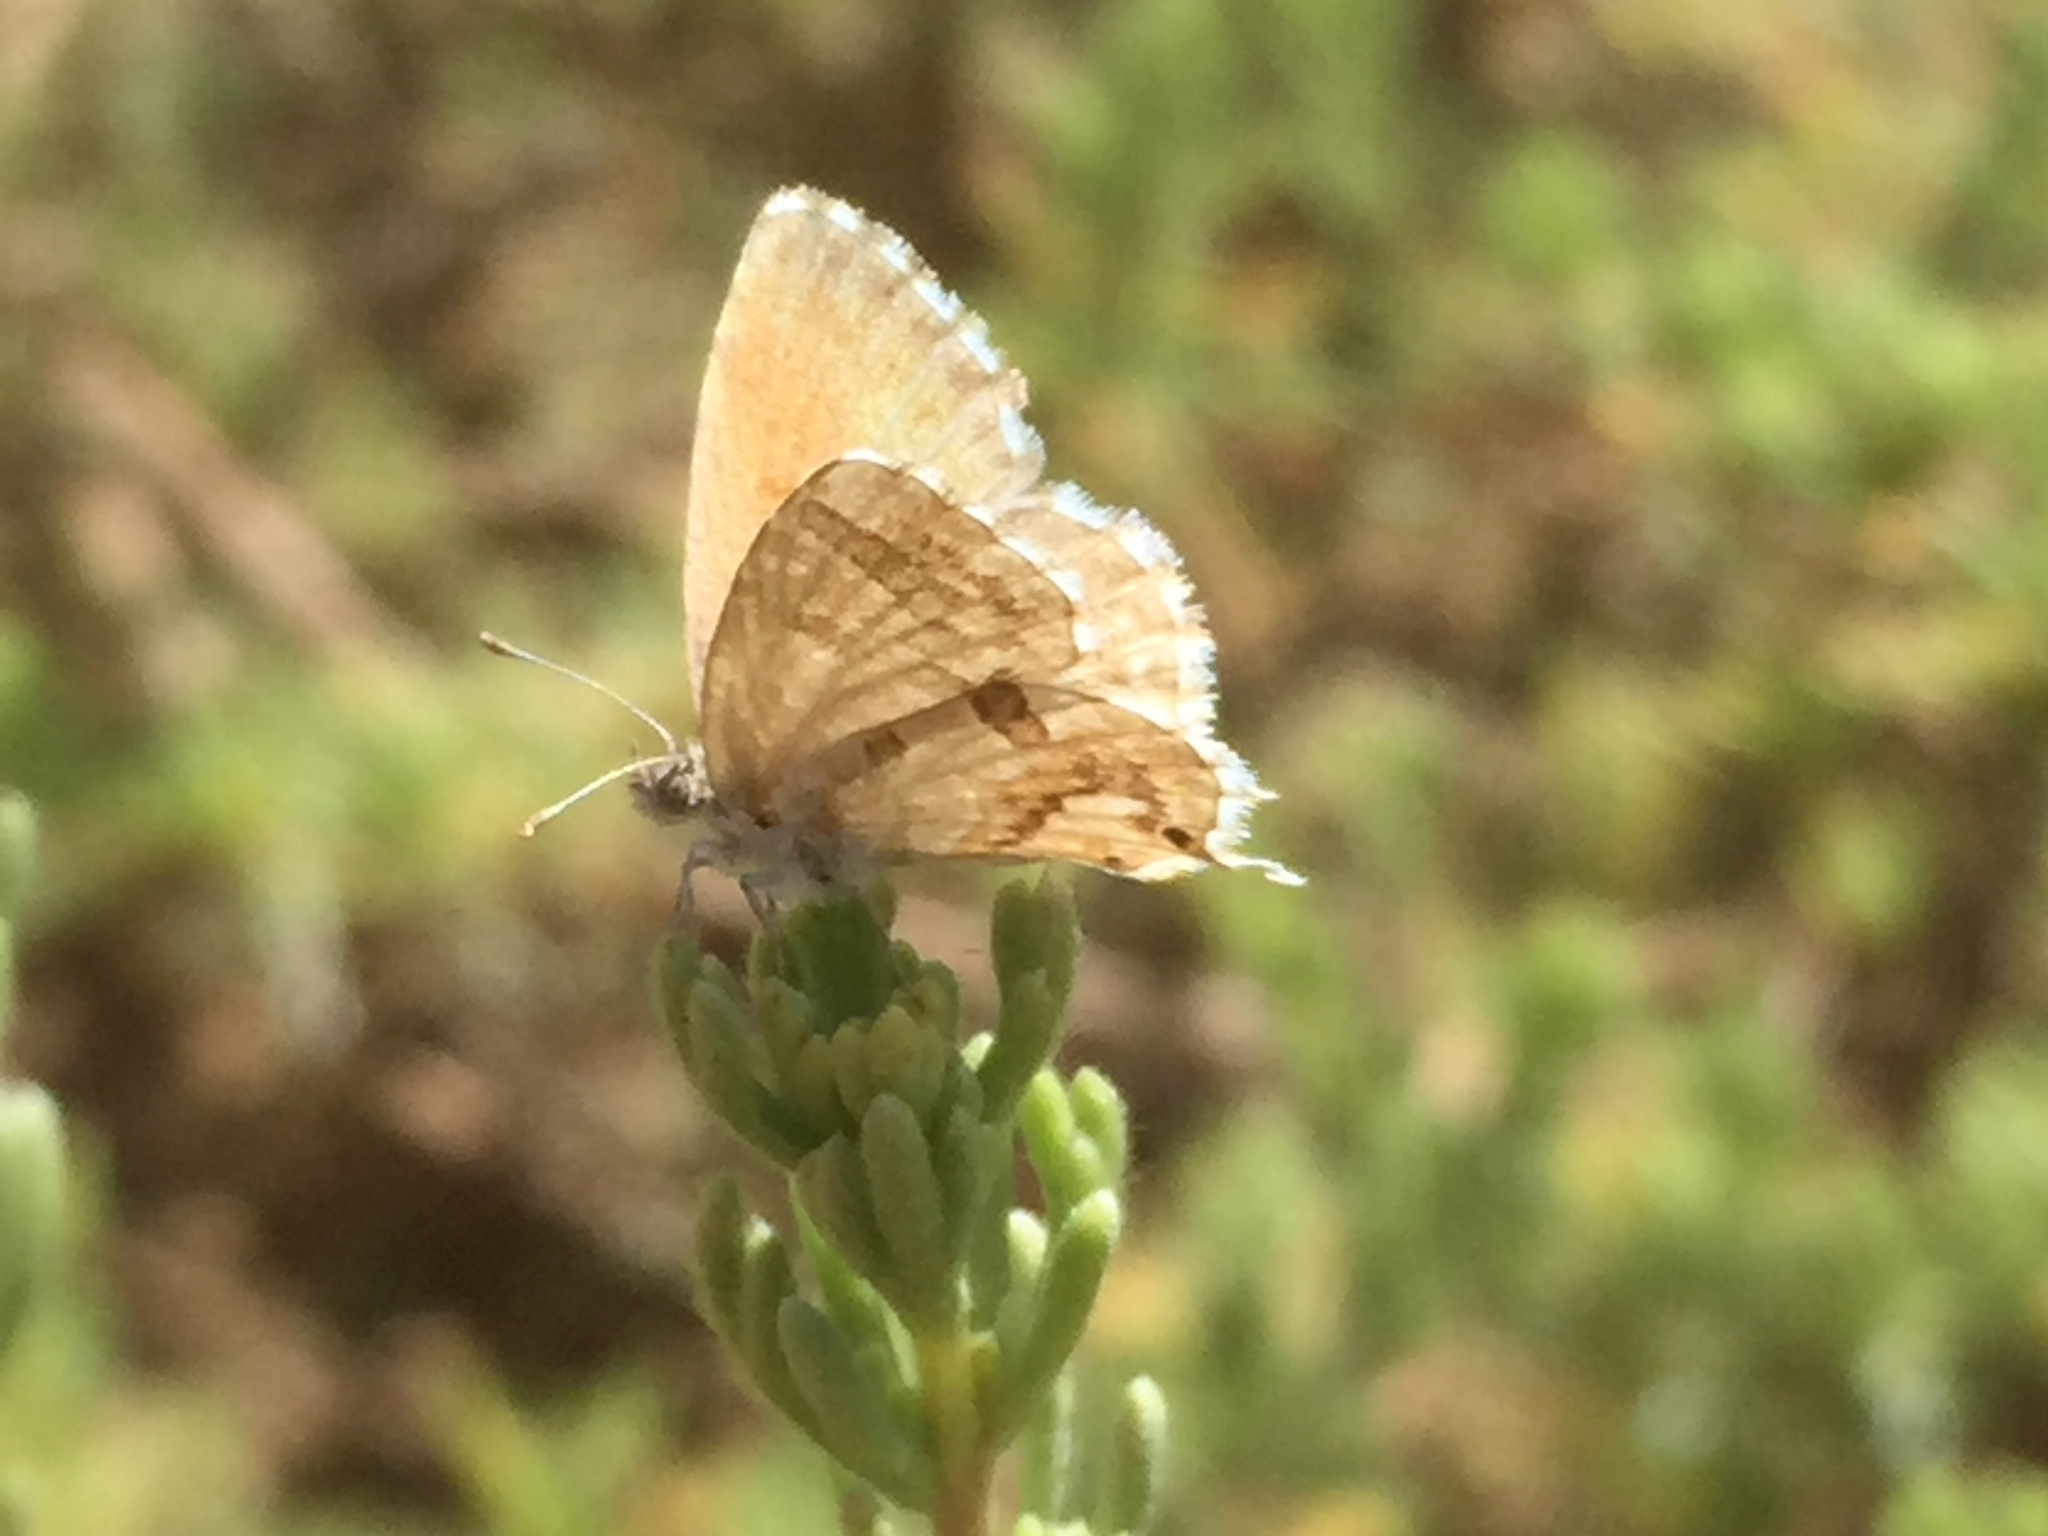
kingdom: Animalia
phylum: Arthropoda
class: Insecta
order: Lepidoptera
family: Lycaenidae
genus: Cacyreus
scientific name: Cacyreus marshalli
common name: Geranium bronze
